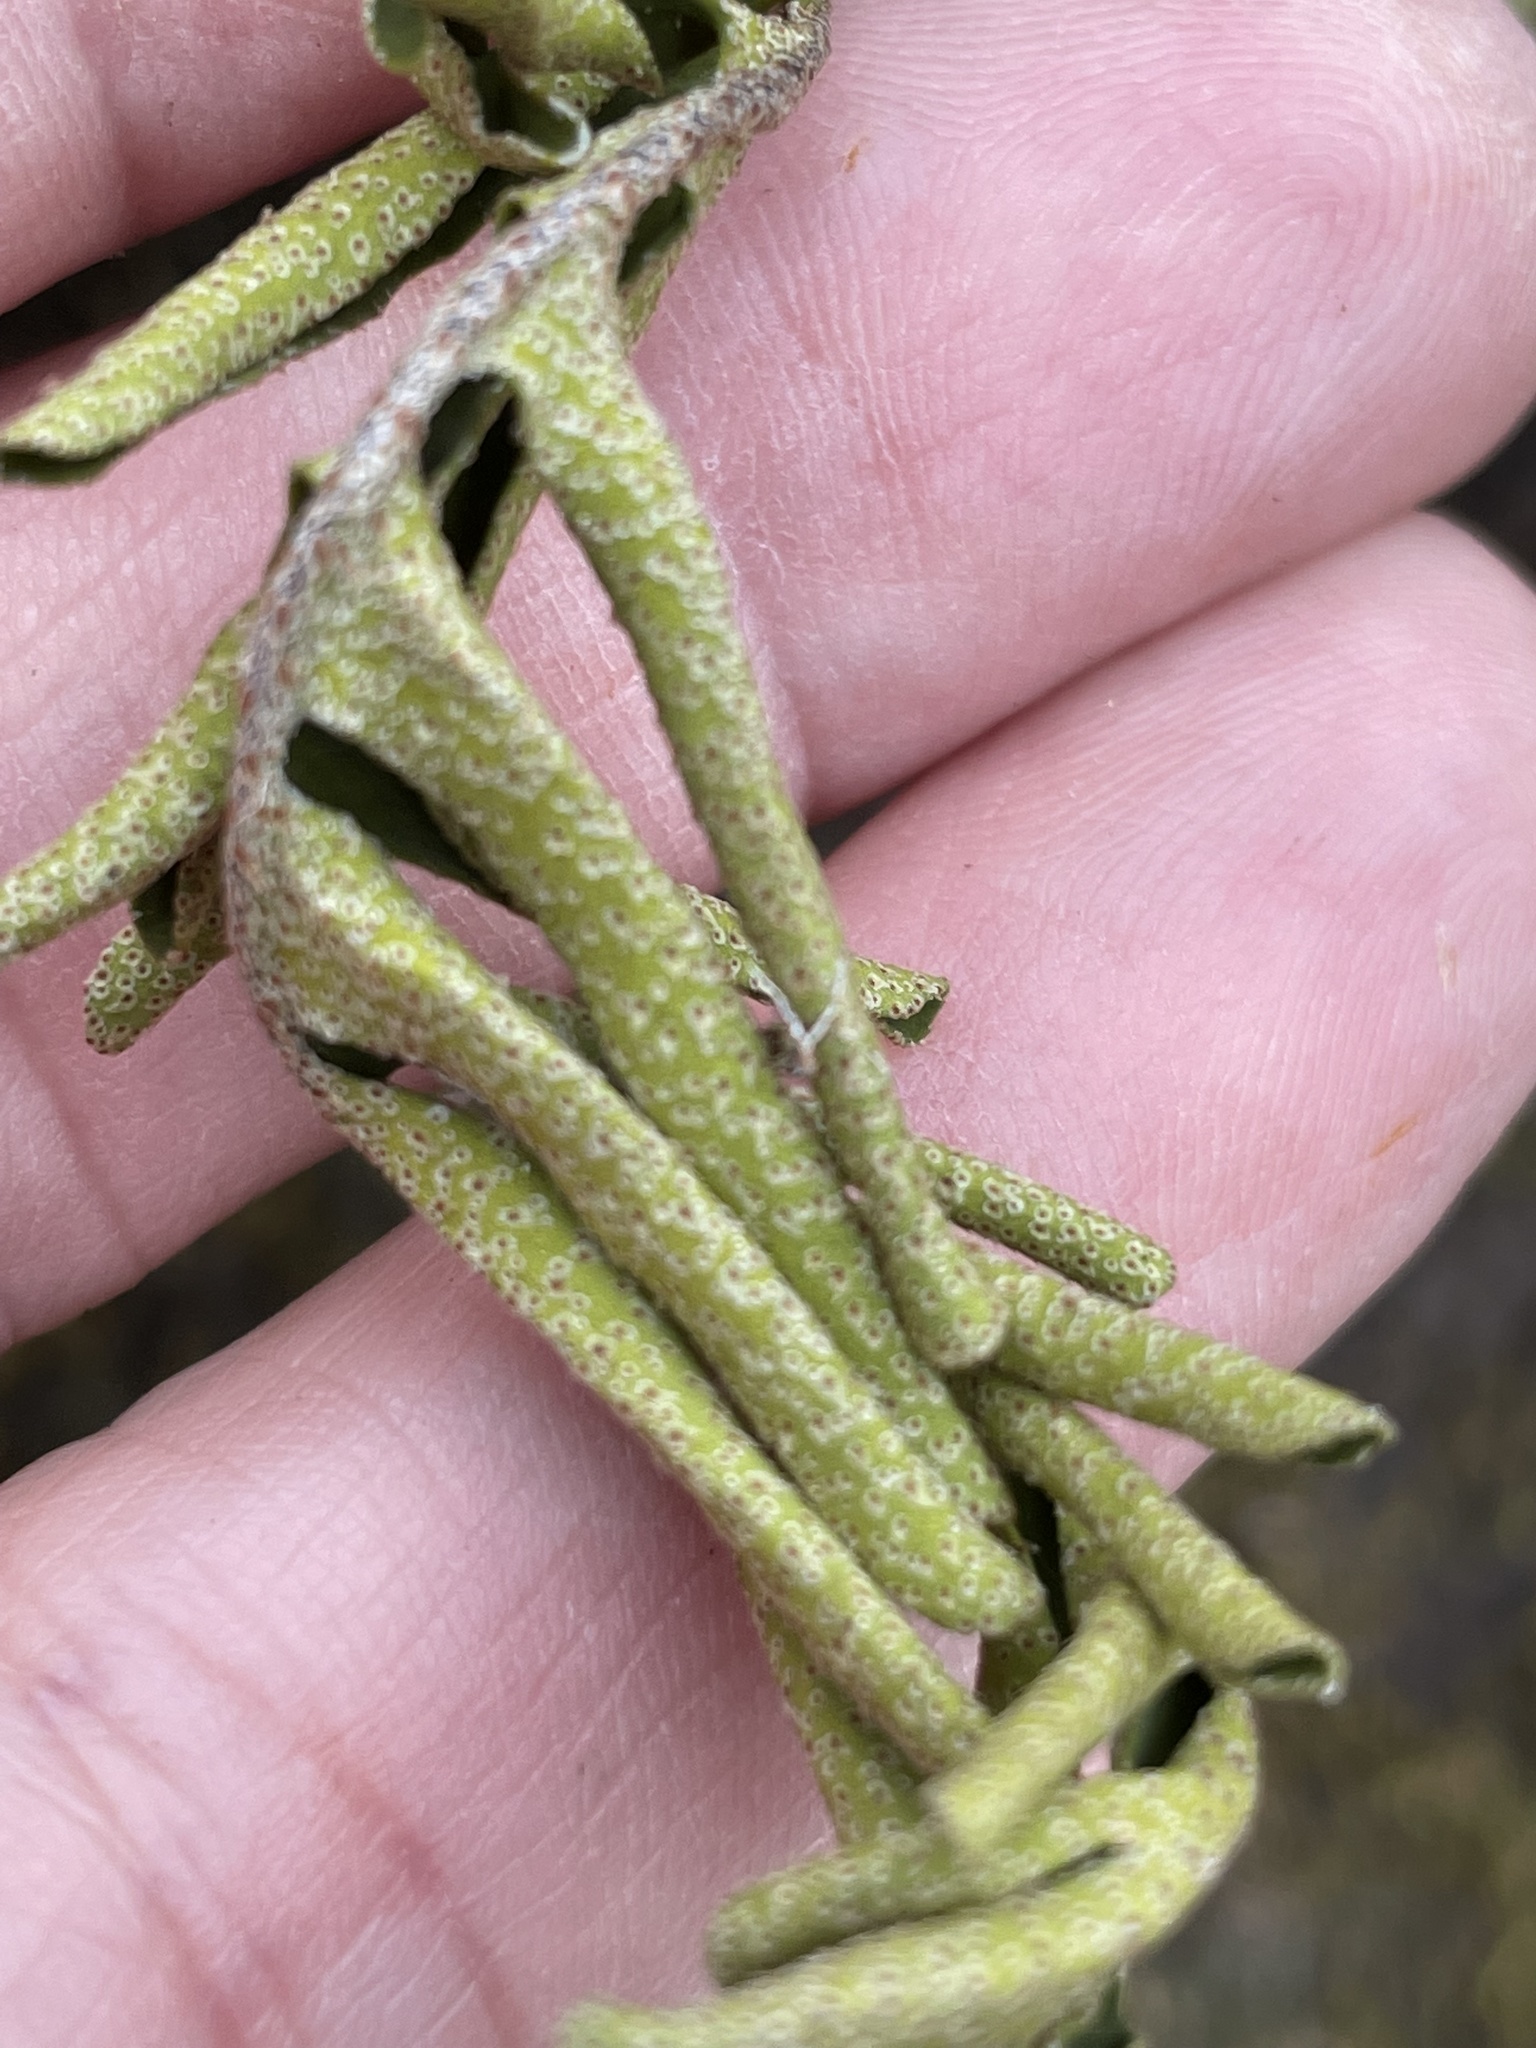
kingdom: Plantae
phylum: Tracheophyta
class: Polypodiopsida
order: Polypodiales
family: Polypodiaceae
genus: Pleopeltis
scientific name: Pleopeltis michauxiana
